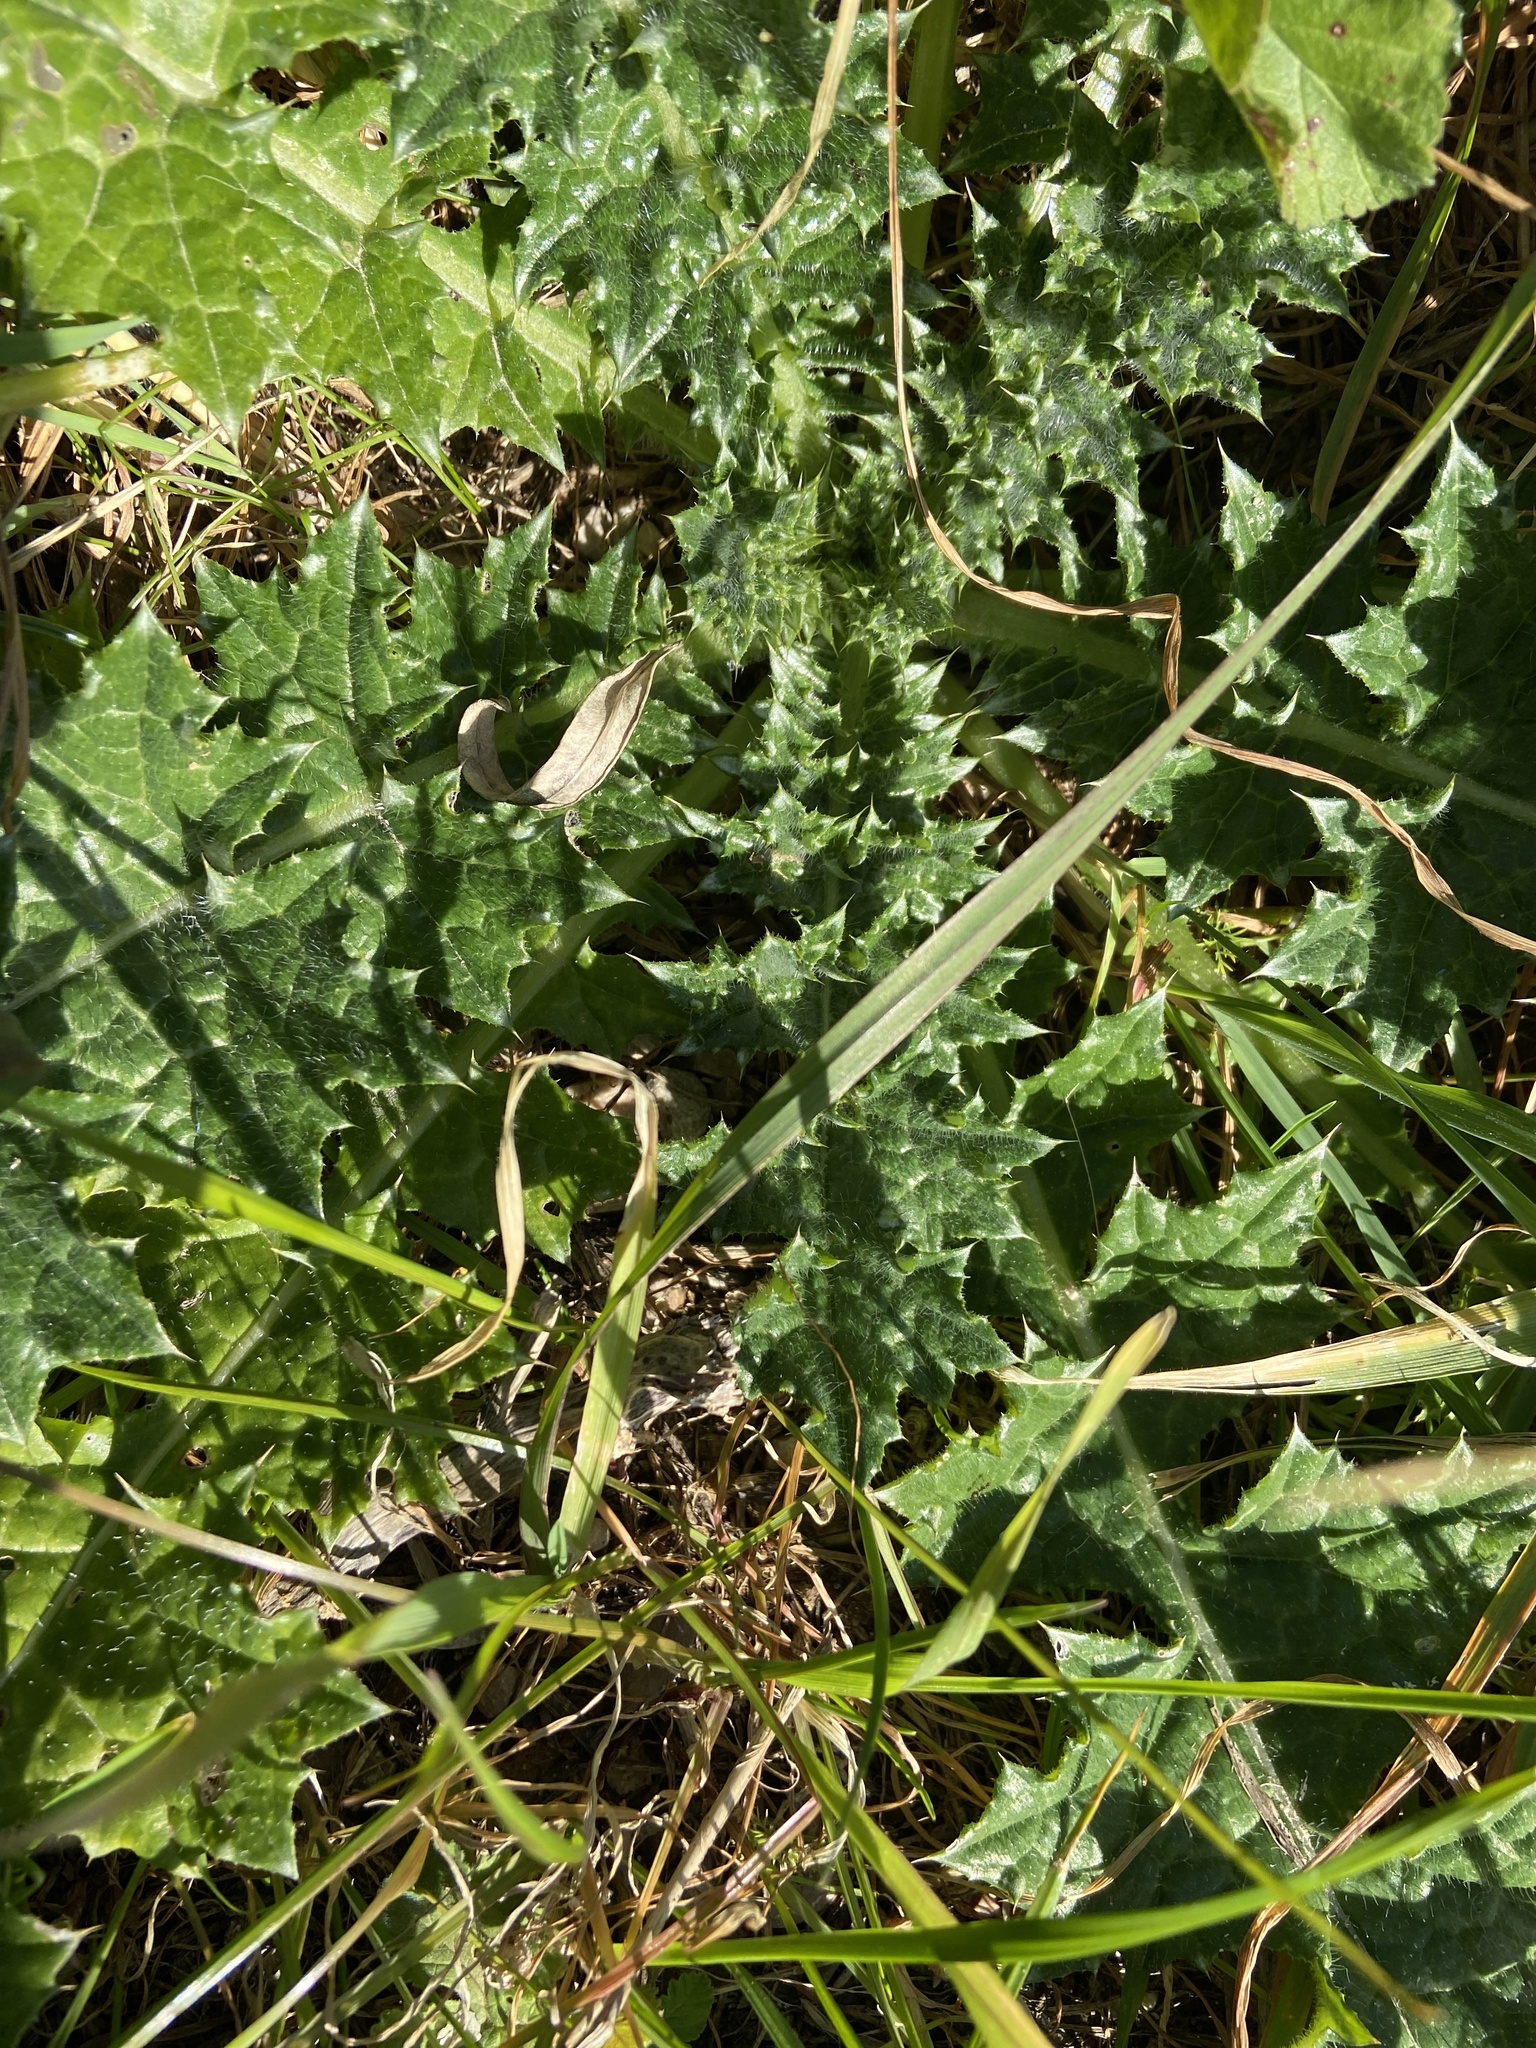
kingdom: Plantae
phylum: Tracheophyta
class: Magnoliopsida
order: Asterales
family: Asteraceae
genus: Carduus
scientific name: Carduus pycnocephalus
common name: Plymouth thistle
